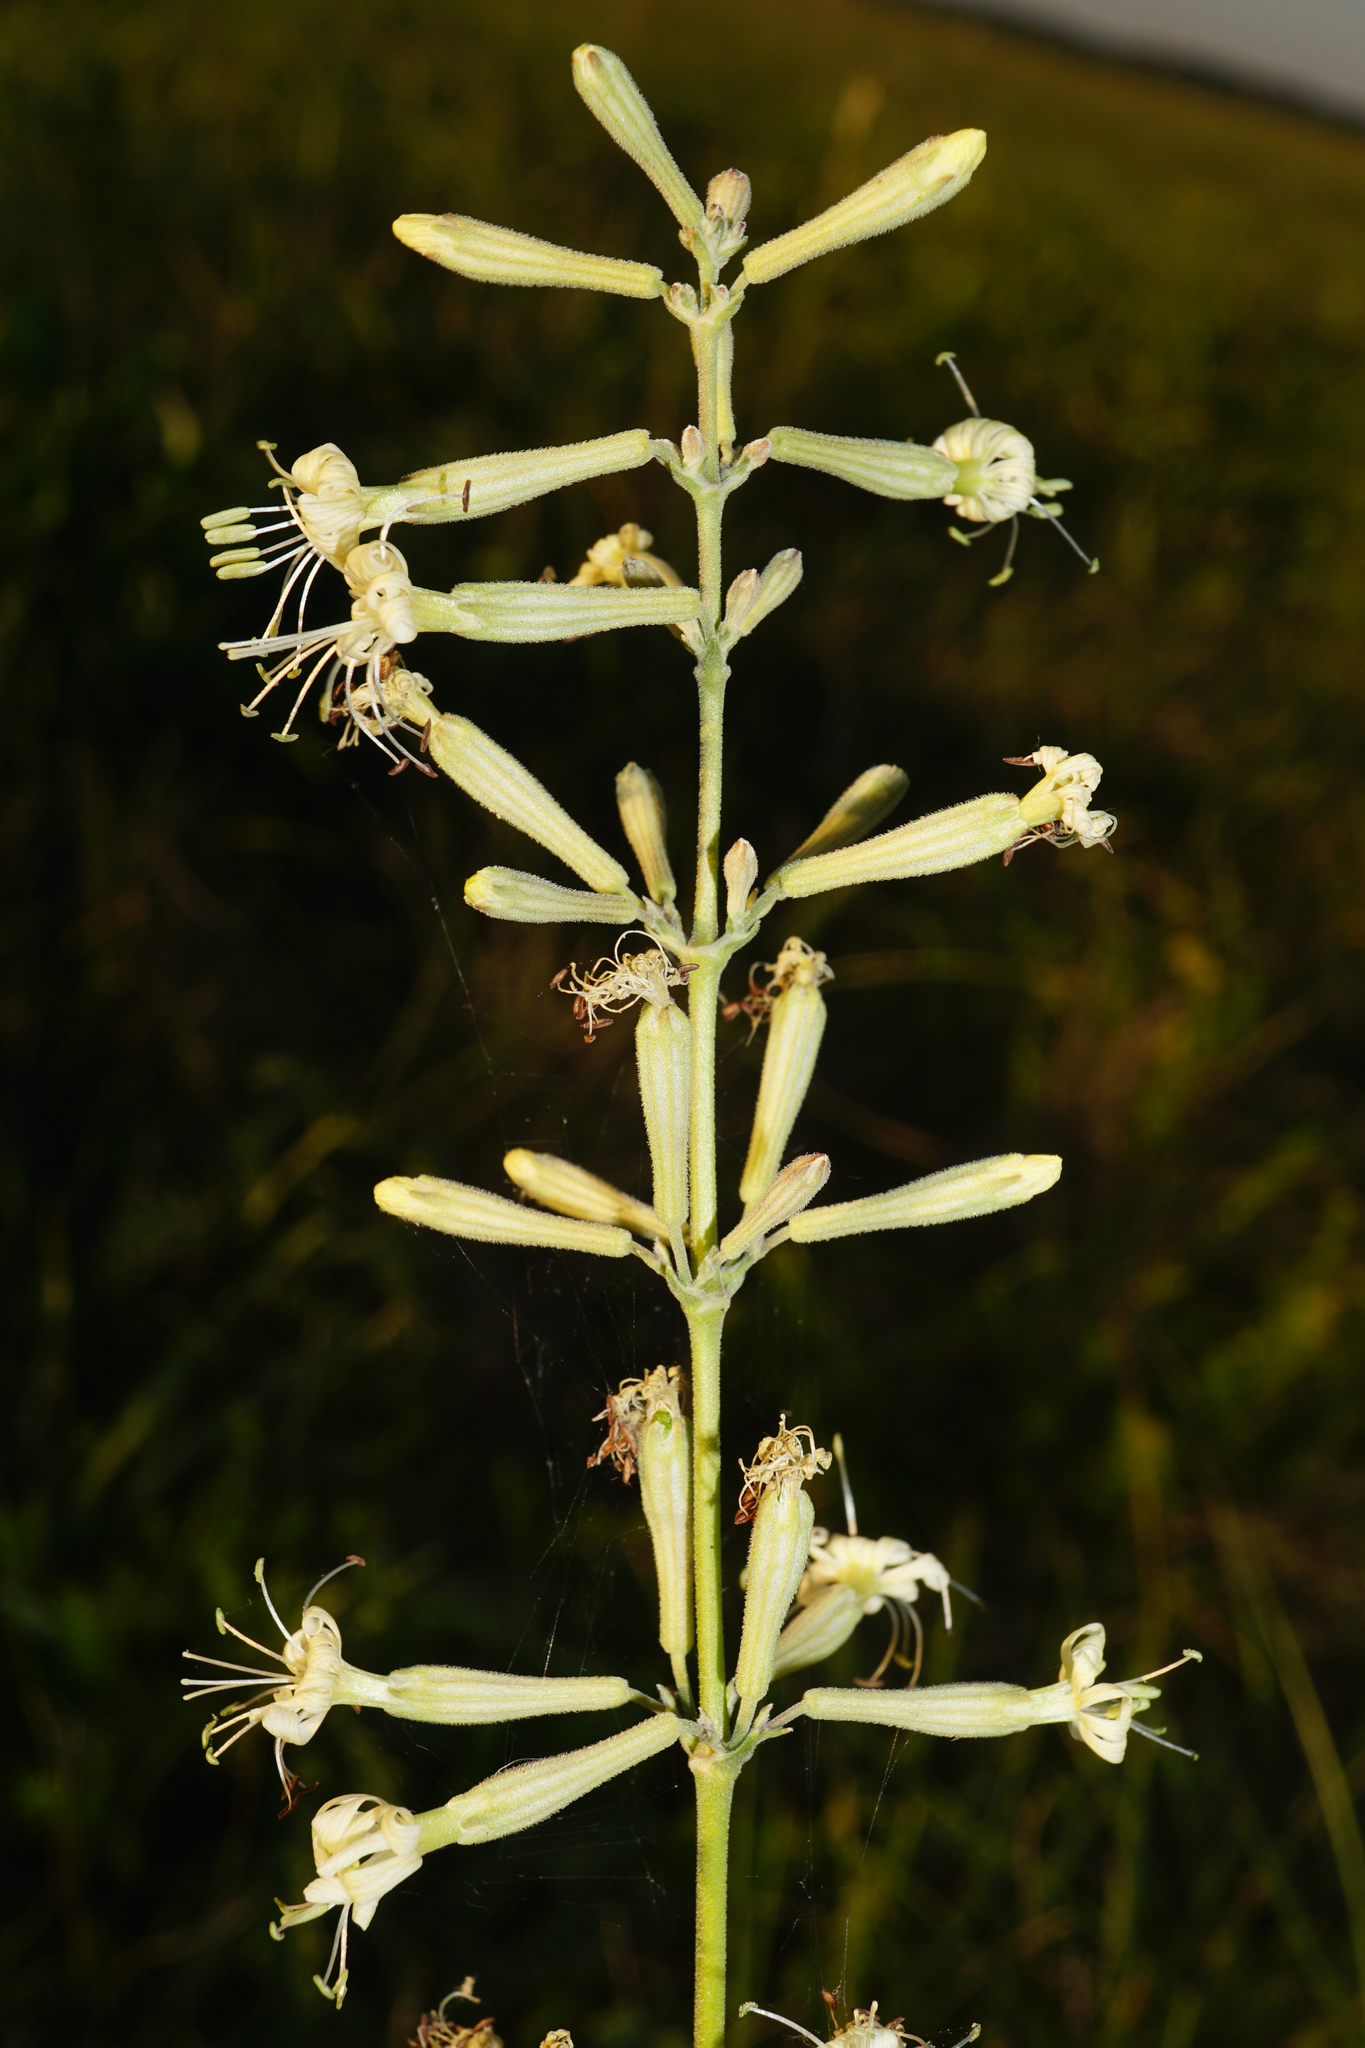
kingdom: Plantae
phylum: Tracheophyta
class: Magnoliopsida
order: Caryophyllales
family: Caryophyllaceae
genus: Silene
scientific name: Silene multiflora
